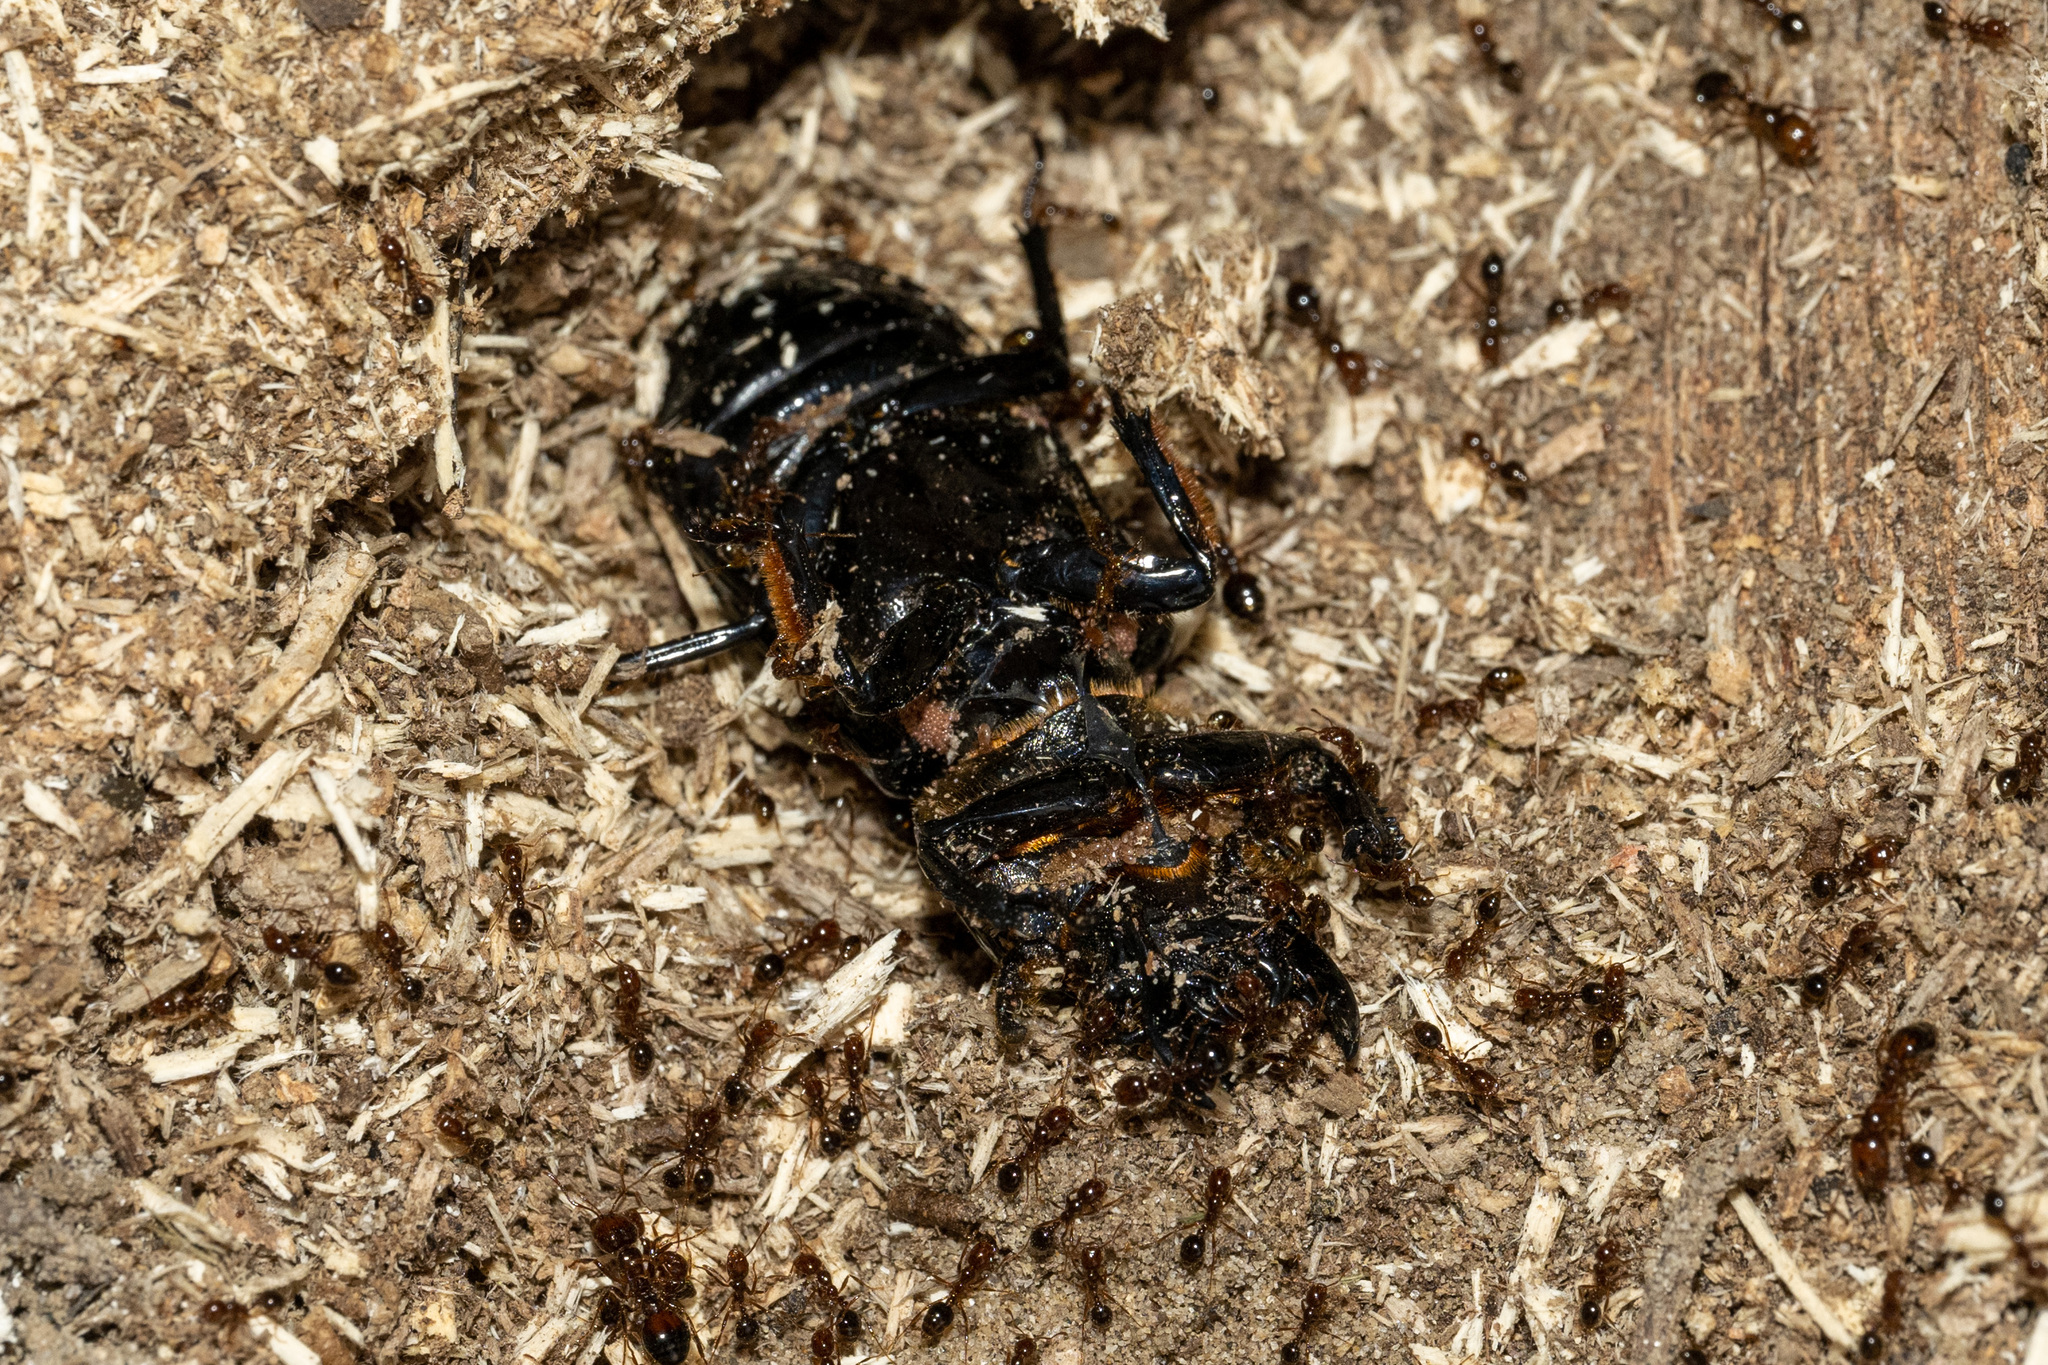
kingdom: Animalia
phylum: Arthropoda
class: Insecta
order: Coleoptera
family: Passalidae
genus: Odontotaenius
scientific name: Odontotaenius disjunctus
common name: Patent leather beetle
